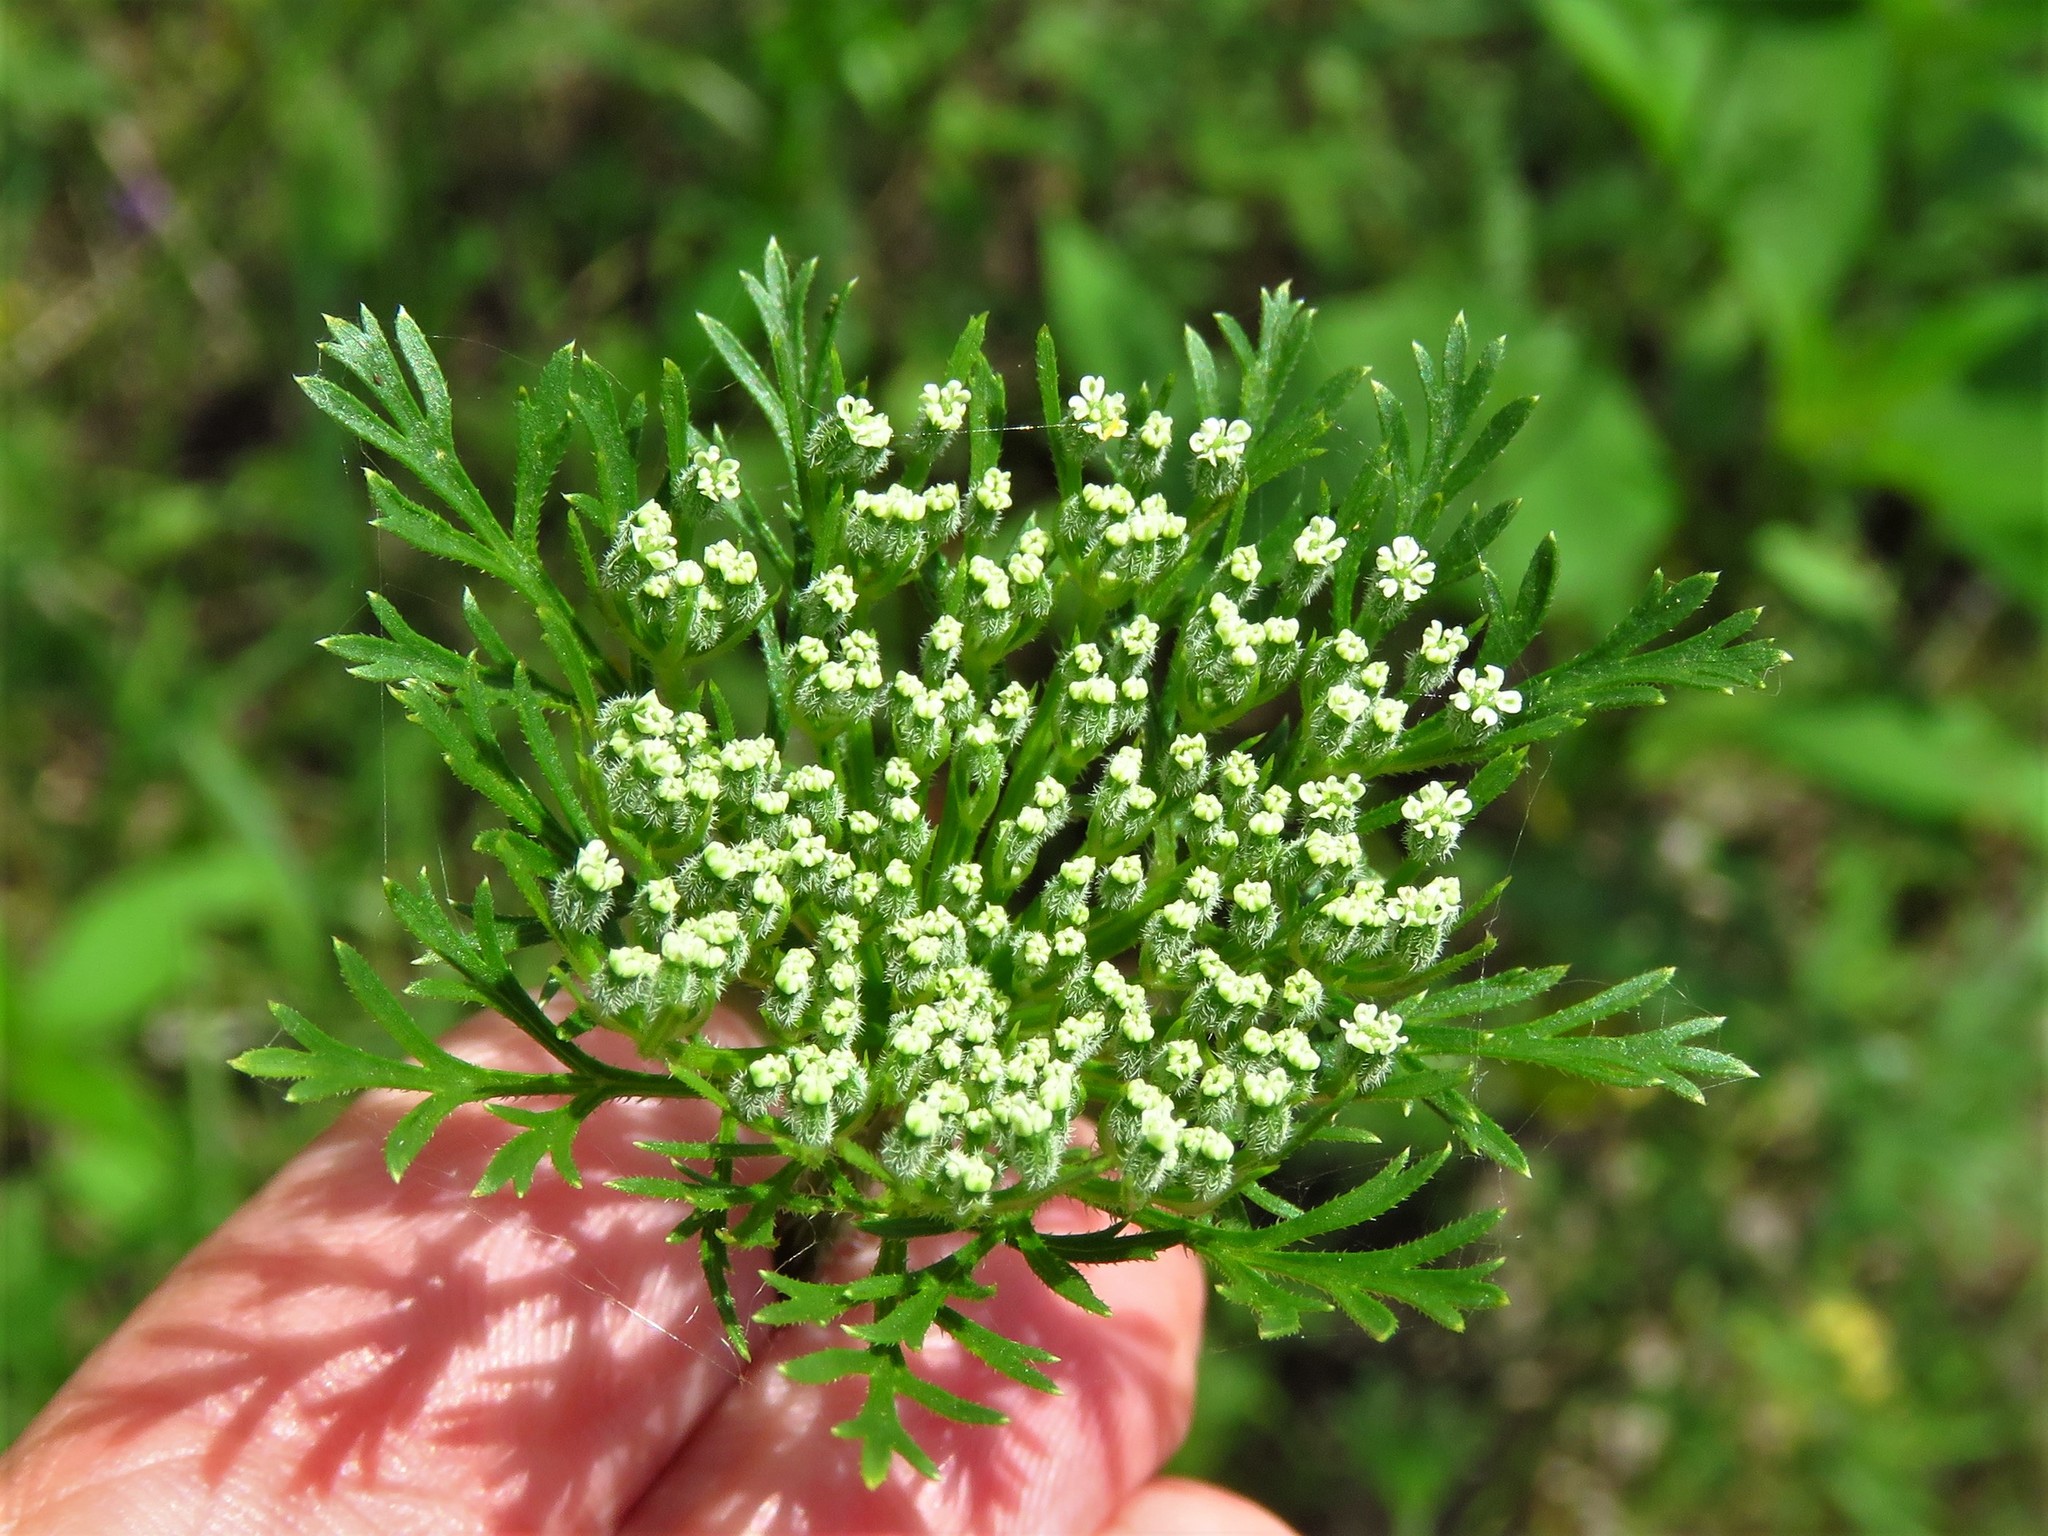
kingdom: Plantae
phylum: Tracheophyta
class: Magnoliopsida
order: Apiales
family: Apiaceae
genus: Daucus
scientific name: Daucus pusillus
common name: Southwest wild carrot
